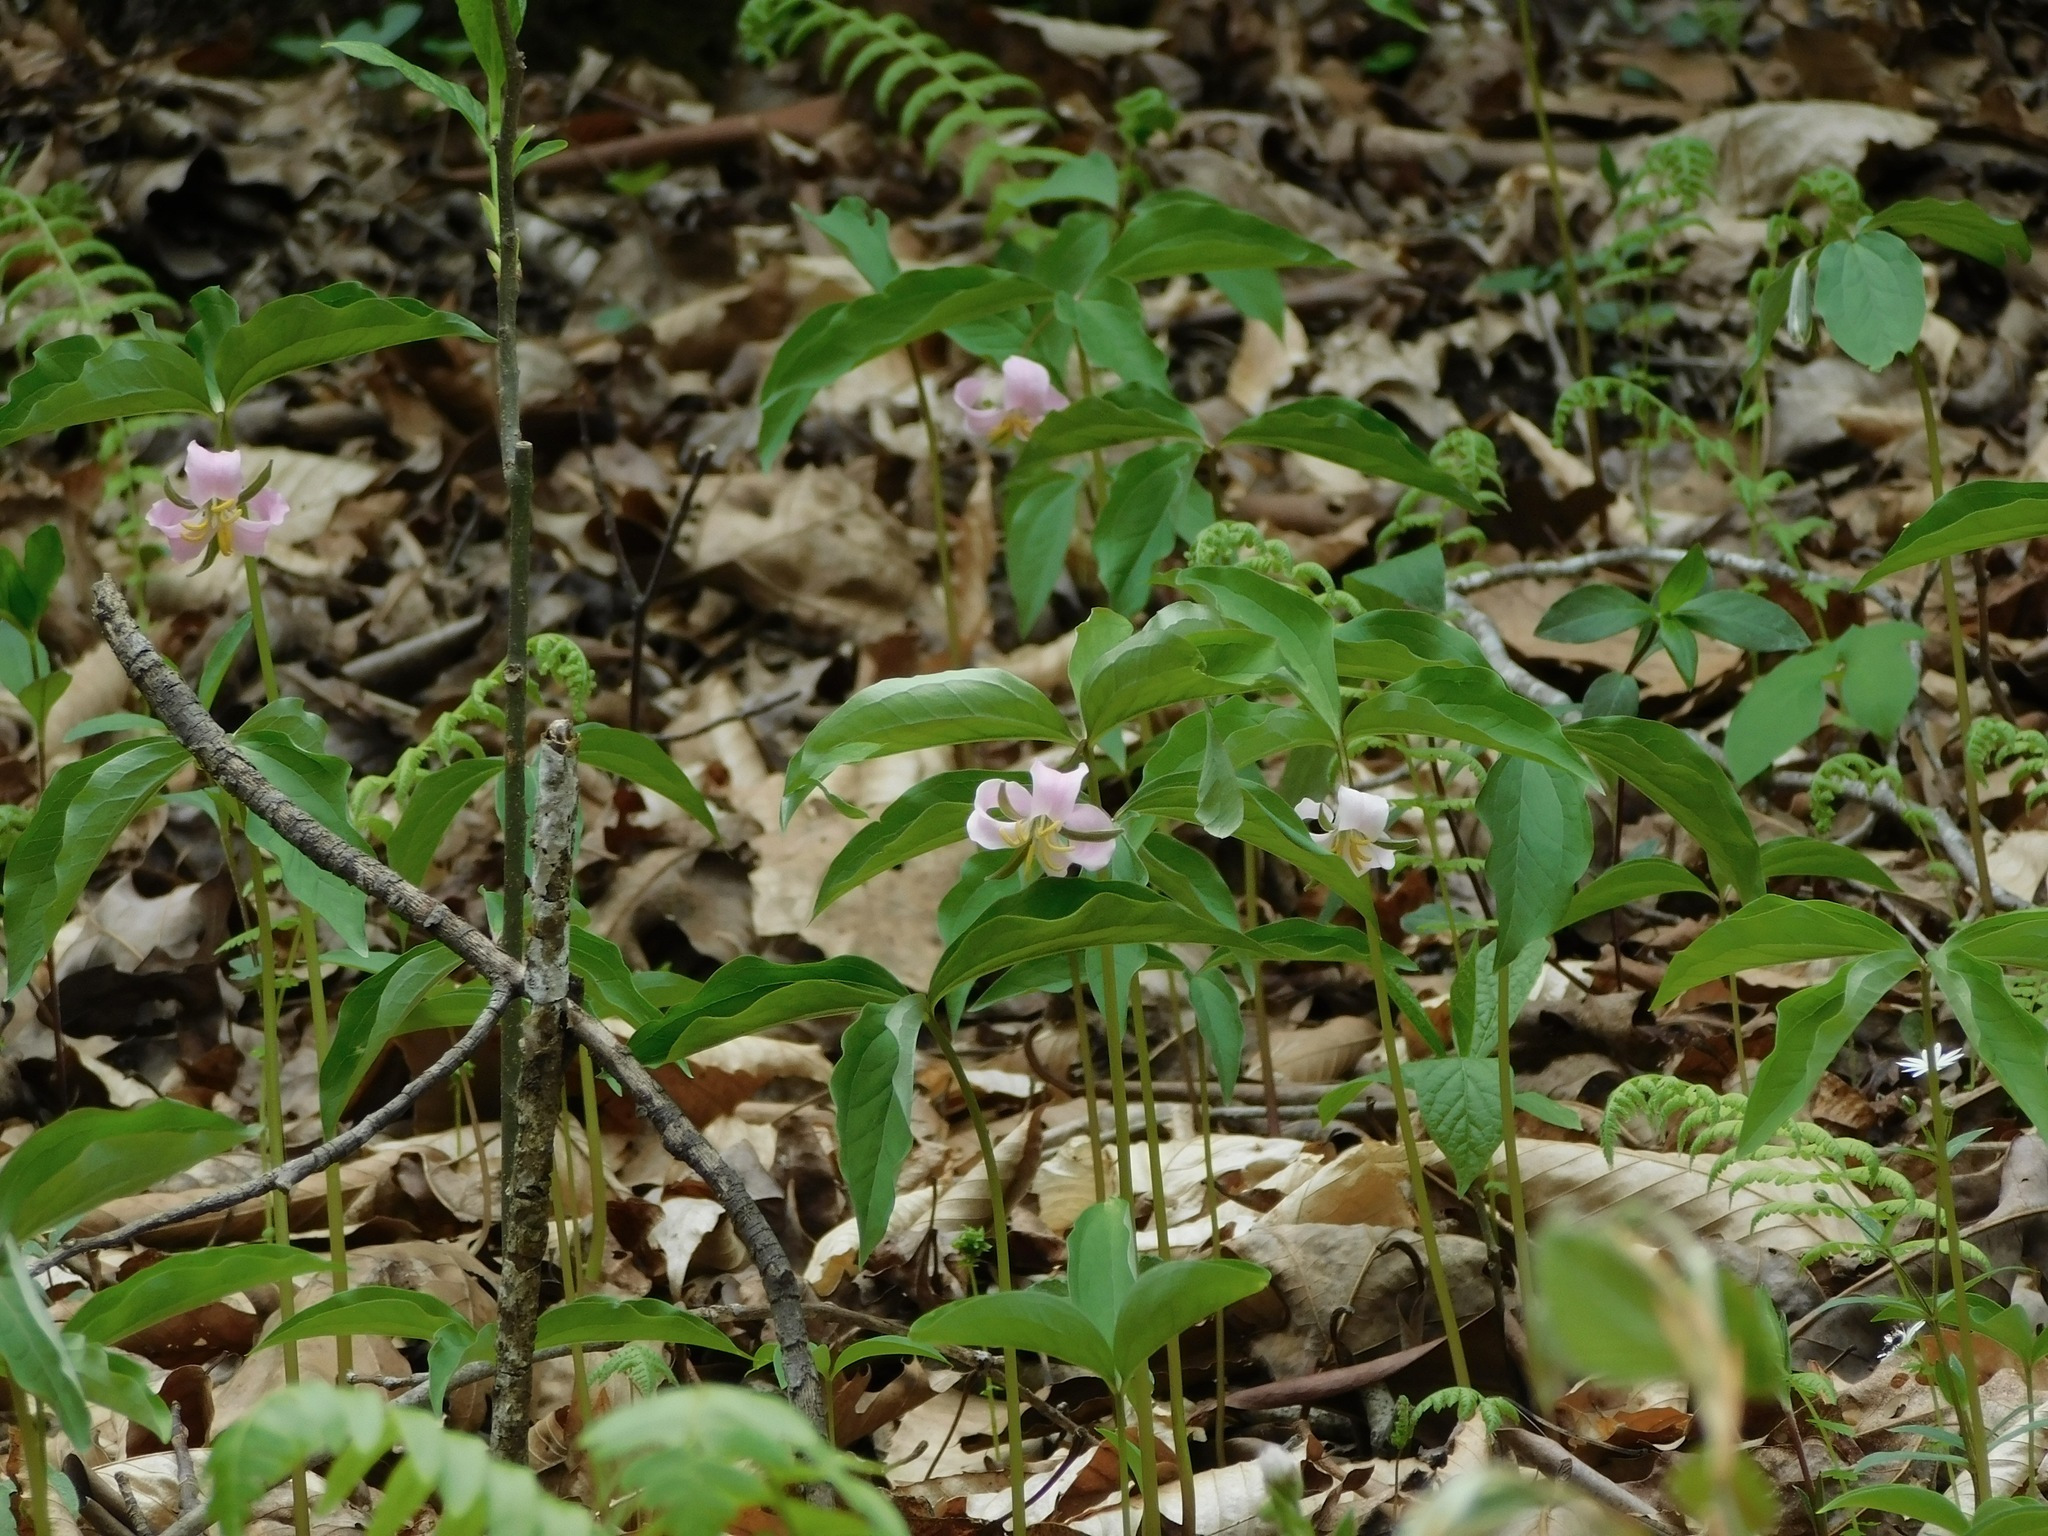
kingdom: Plantae
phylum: Tracheophyta
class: Liliopsida
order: Liliales
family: Melanthiaceae
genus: Trillium
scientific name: Trillium catesbaei
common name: Bashful trillium
